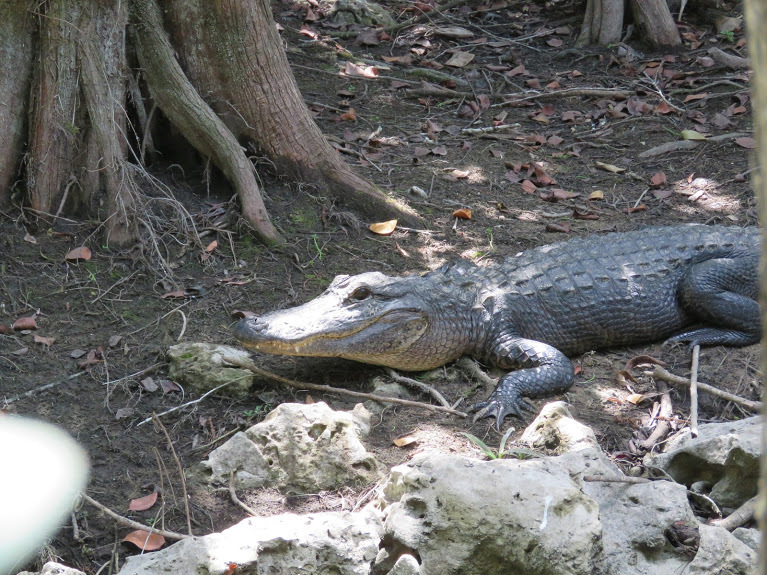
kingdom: Animalia
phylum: Chordata
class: Crocodylia
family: Alligatoridae
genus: Alligator
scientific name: Alligator mississippiensis
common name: American alligator
